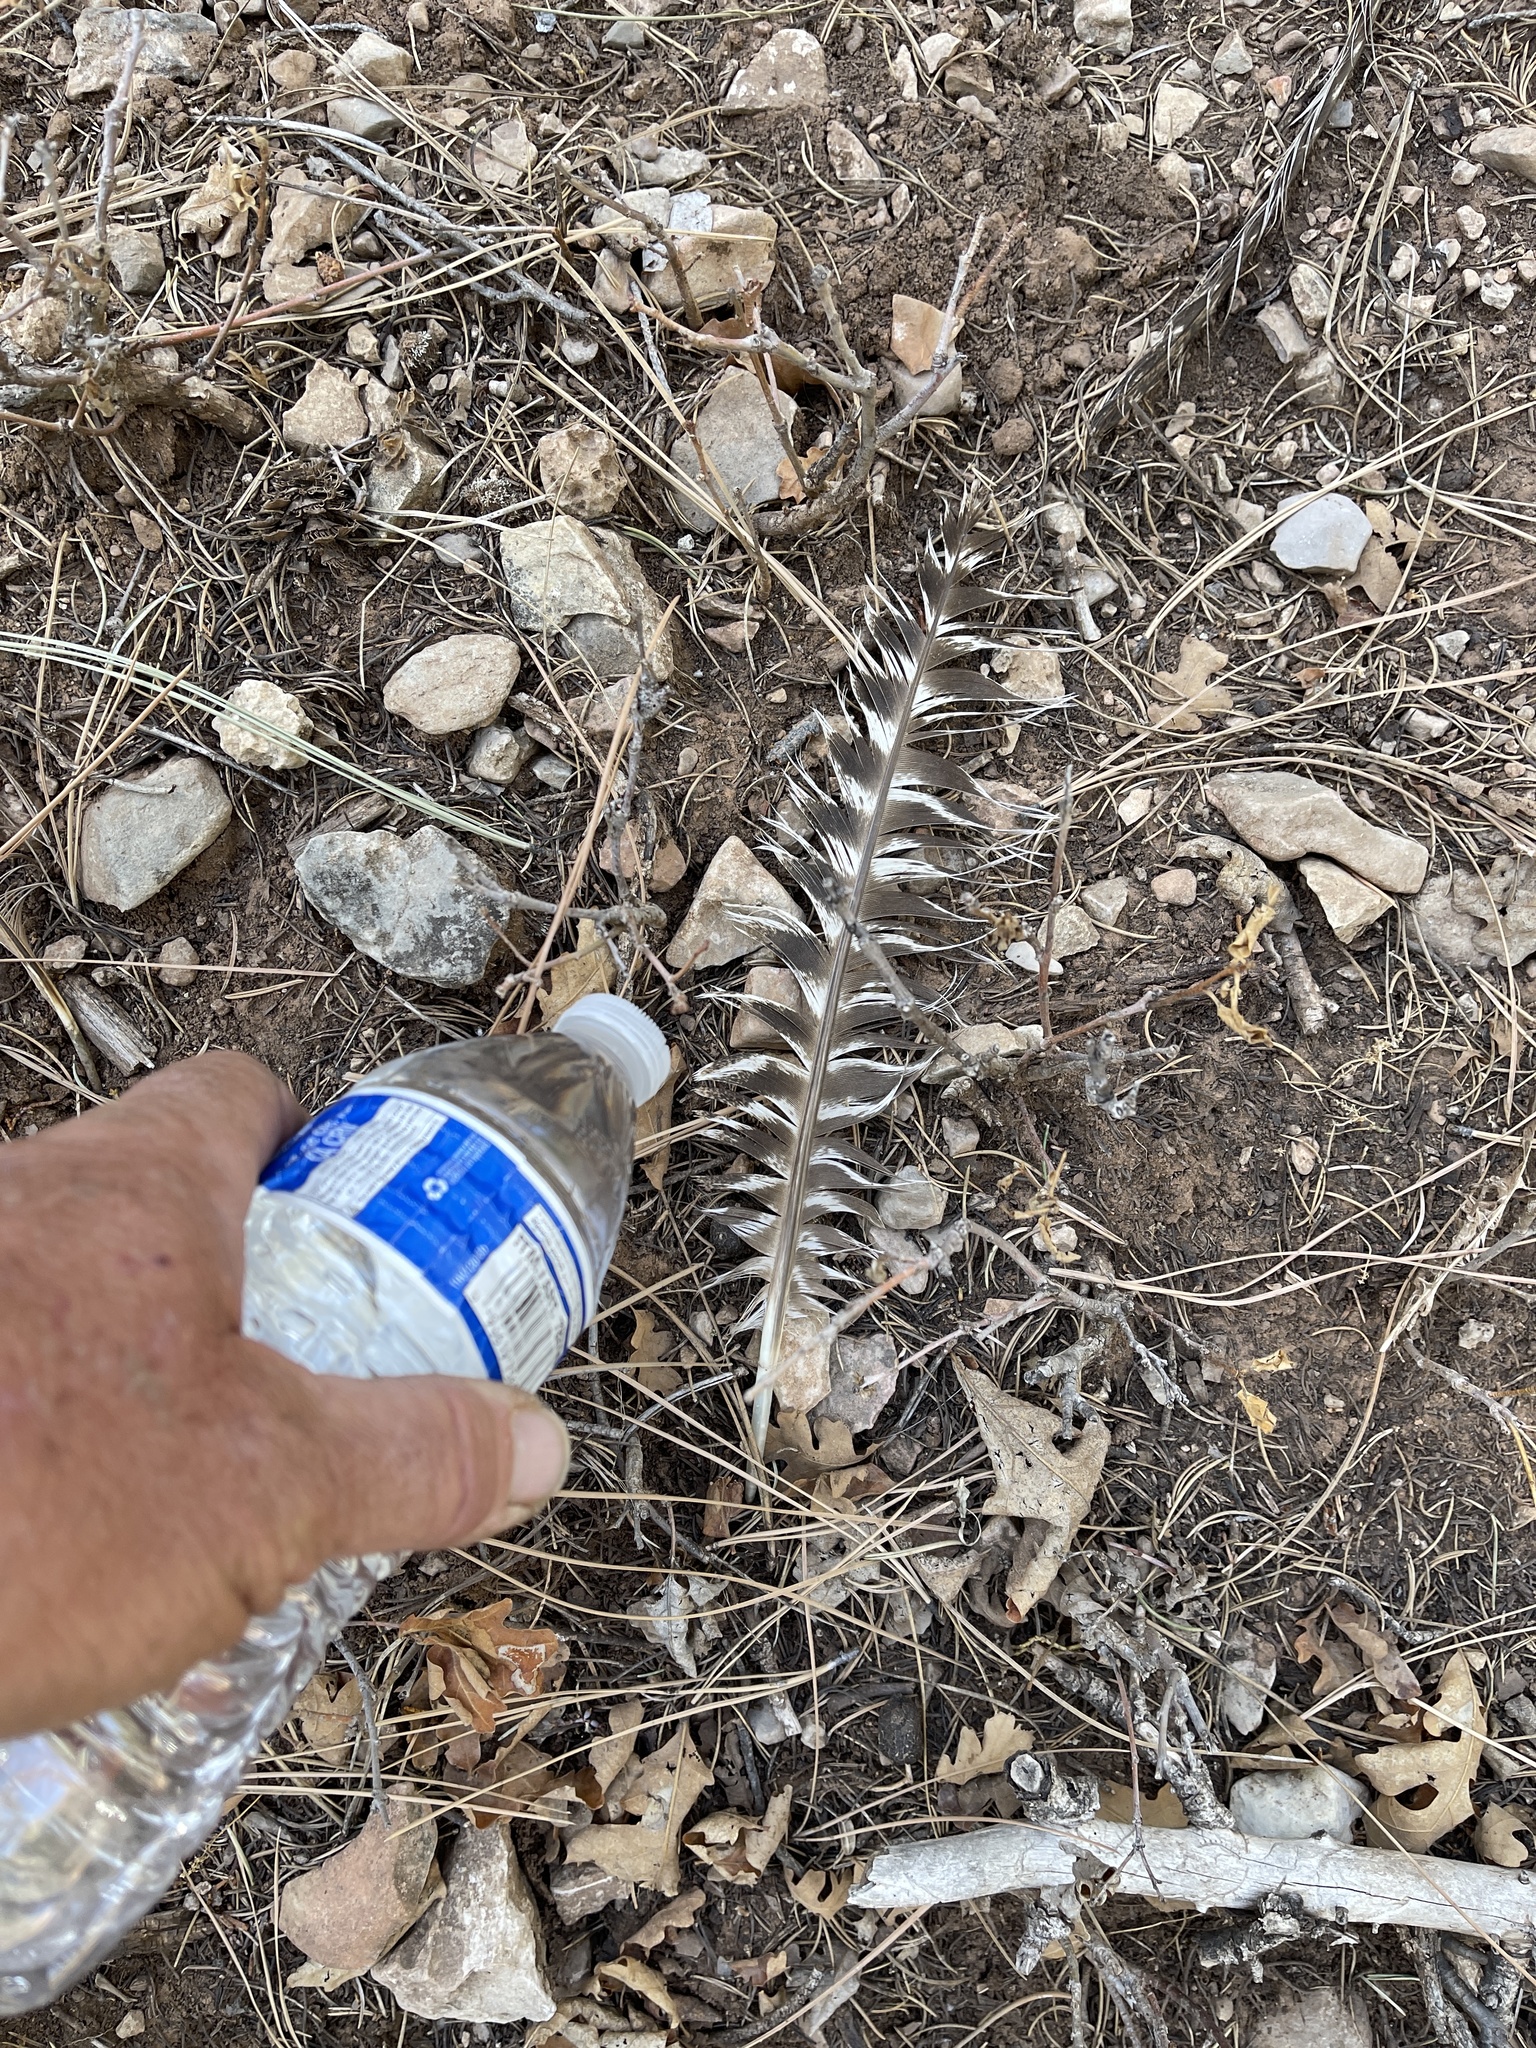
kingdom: Animalia
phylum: Chordata
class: Aves
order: Galliformes
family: Phasianidae
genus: Meleagris
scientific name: Meleagris gallopavo
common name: Wild turkey
